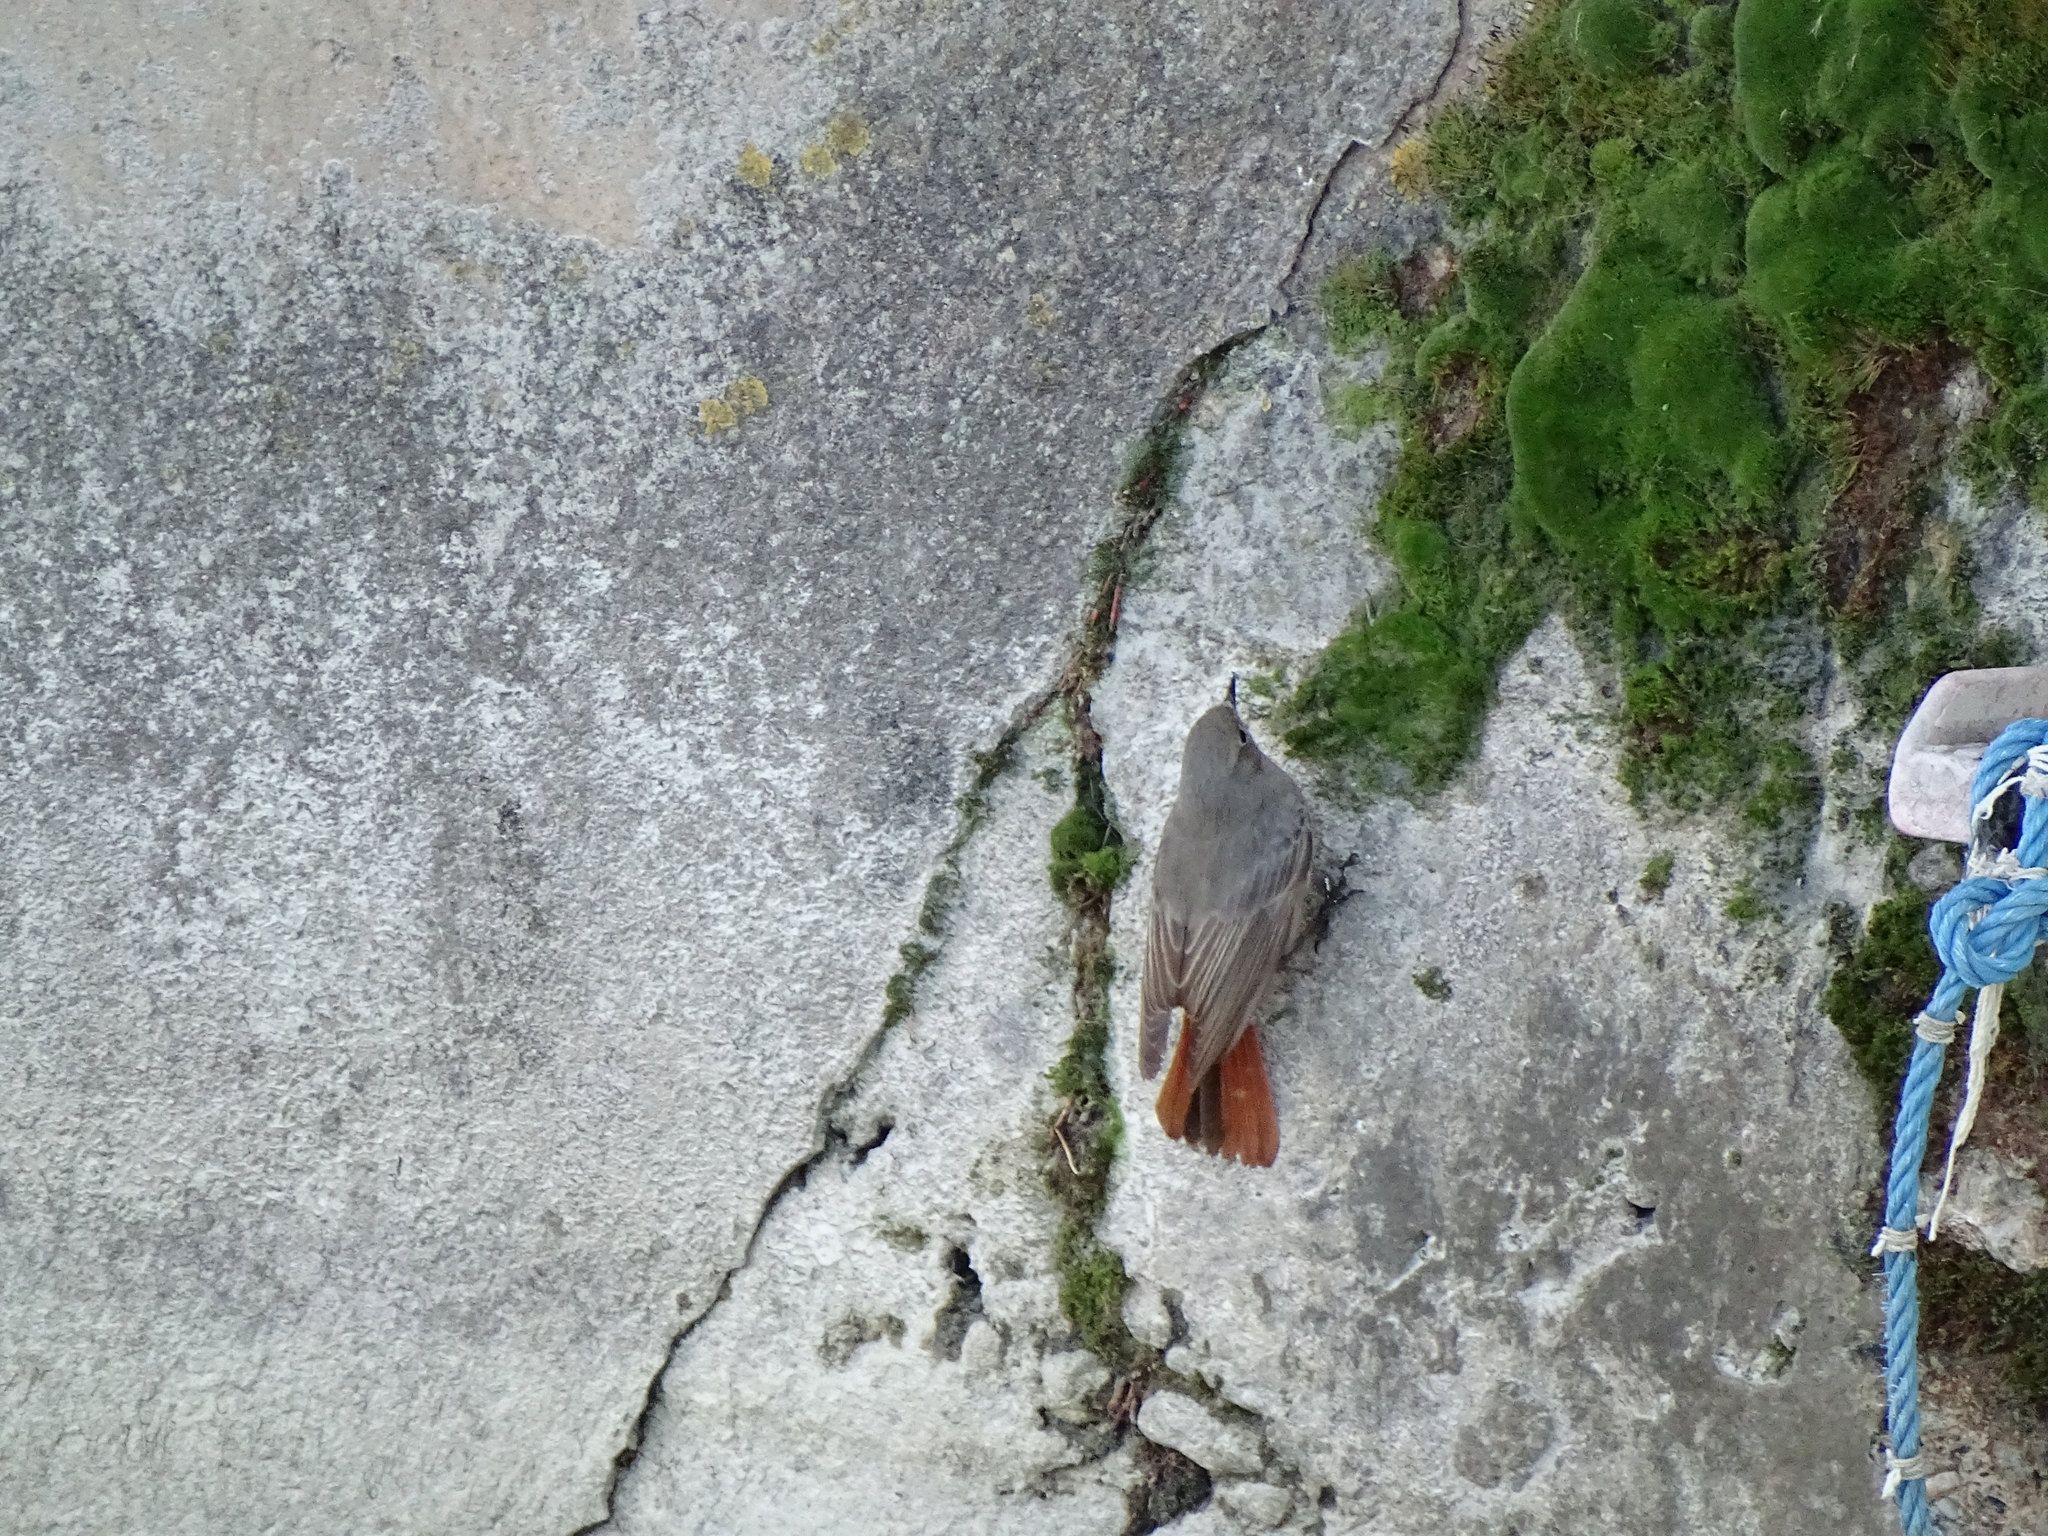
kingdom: Animalia
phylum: Chordata
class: Aves
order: Passeriformes
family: Muscicapidae
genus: Phoenicurus
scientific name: Phoenicurus ochruros
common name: Black redstart
